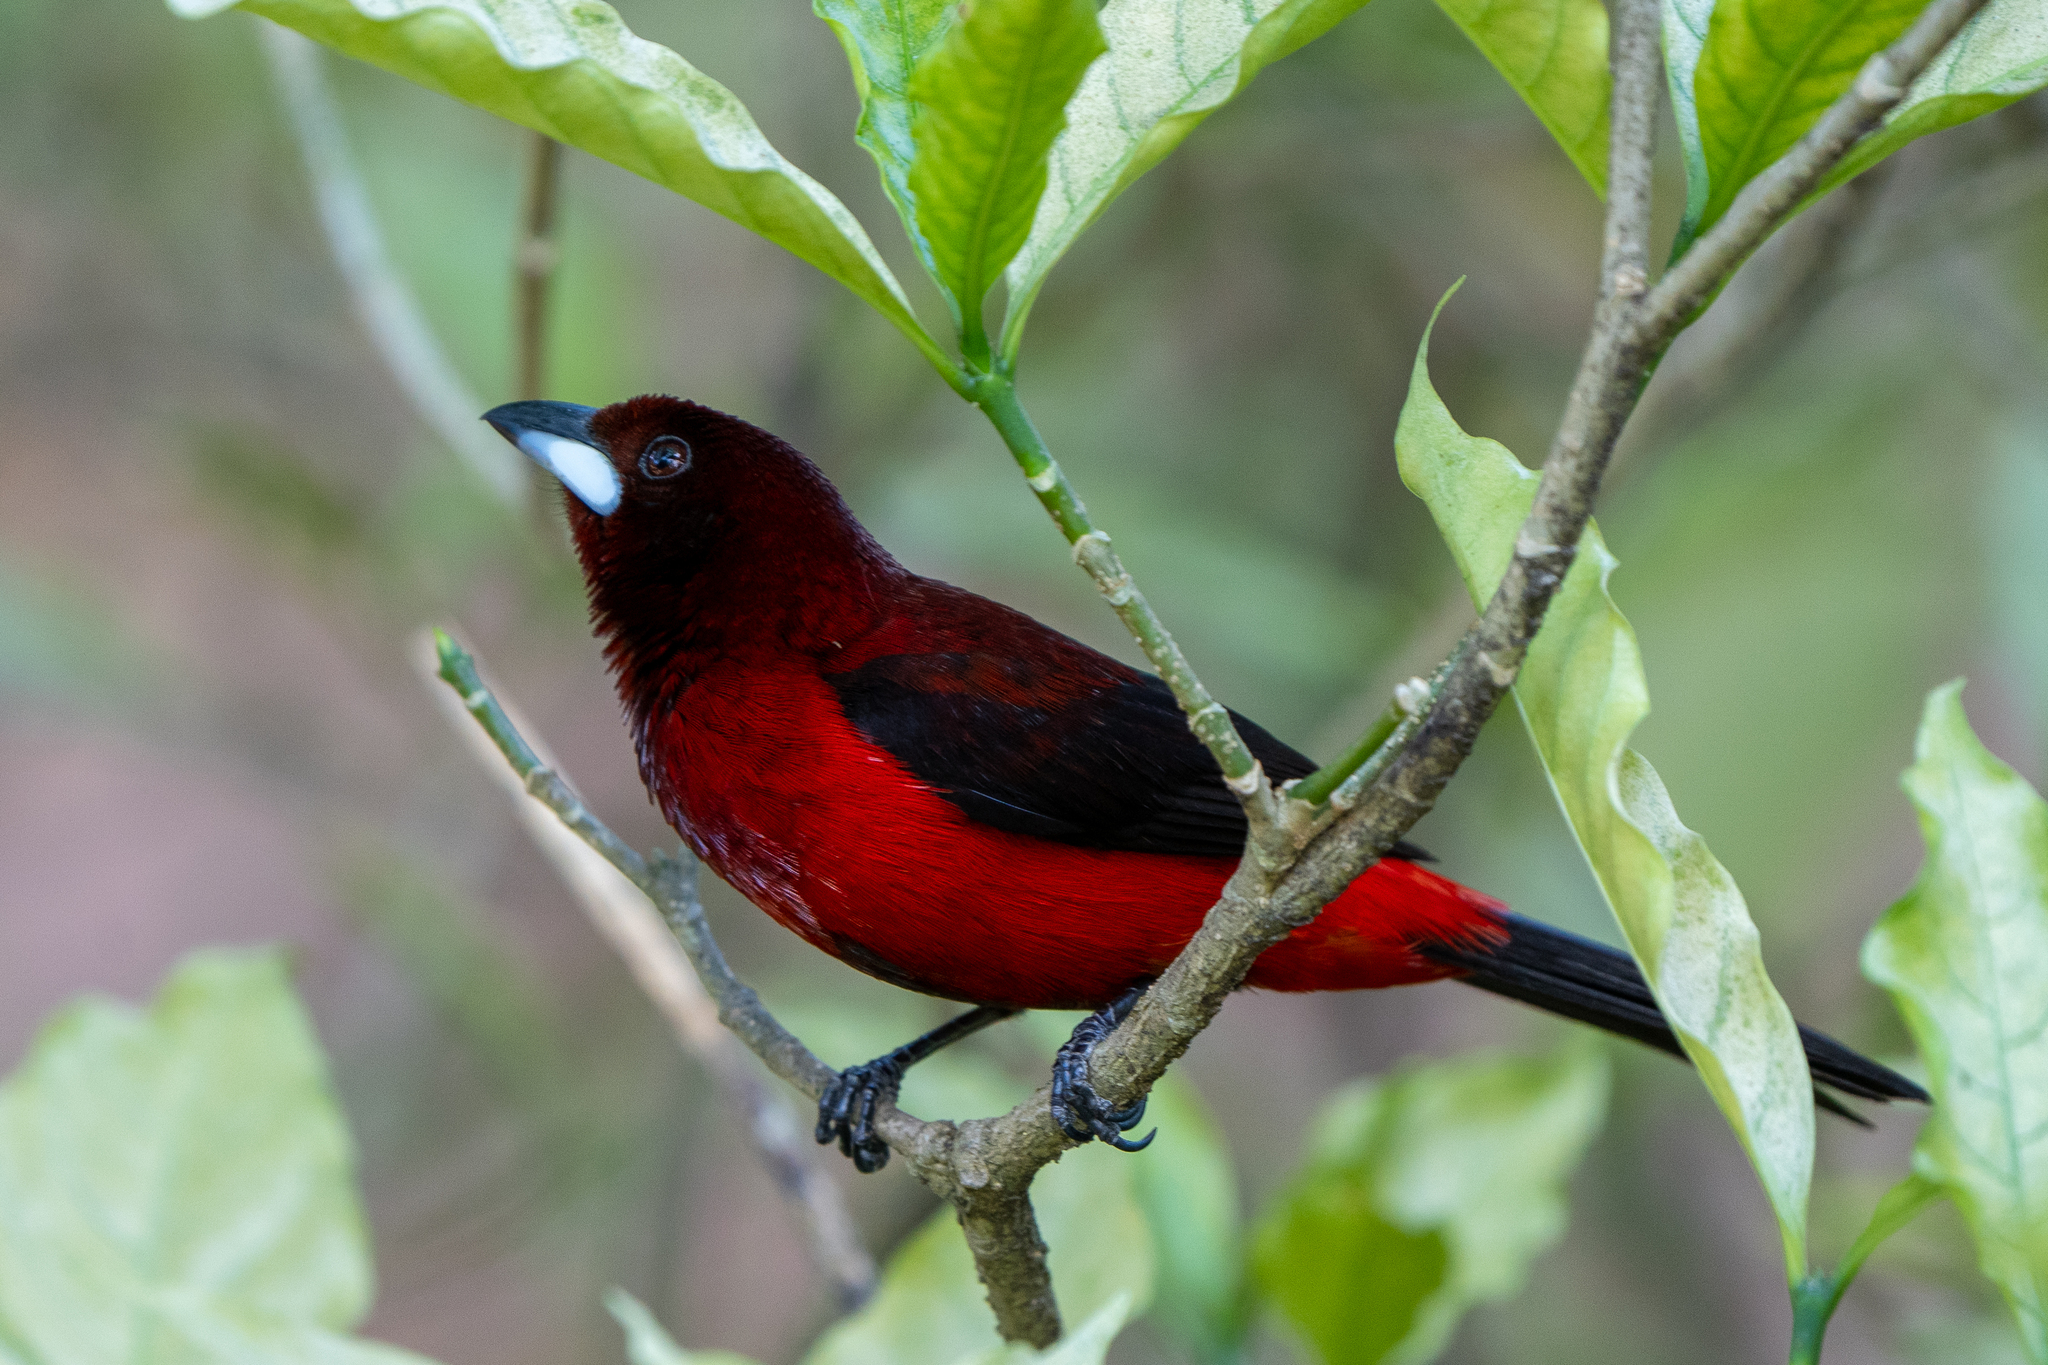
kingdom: Animalia
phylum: Chordata
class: Aves
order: Passeriformes
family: Thraupidae
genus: Ramphocelus
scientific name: Ramphocelus dimidiatus
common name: Crimson-backed tanager
